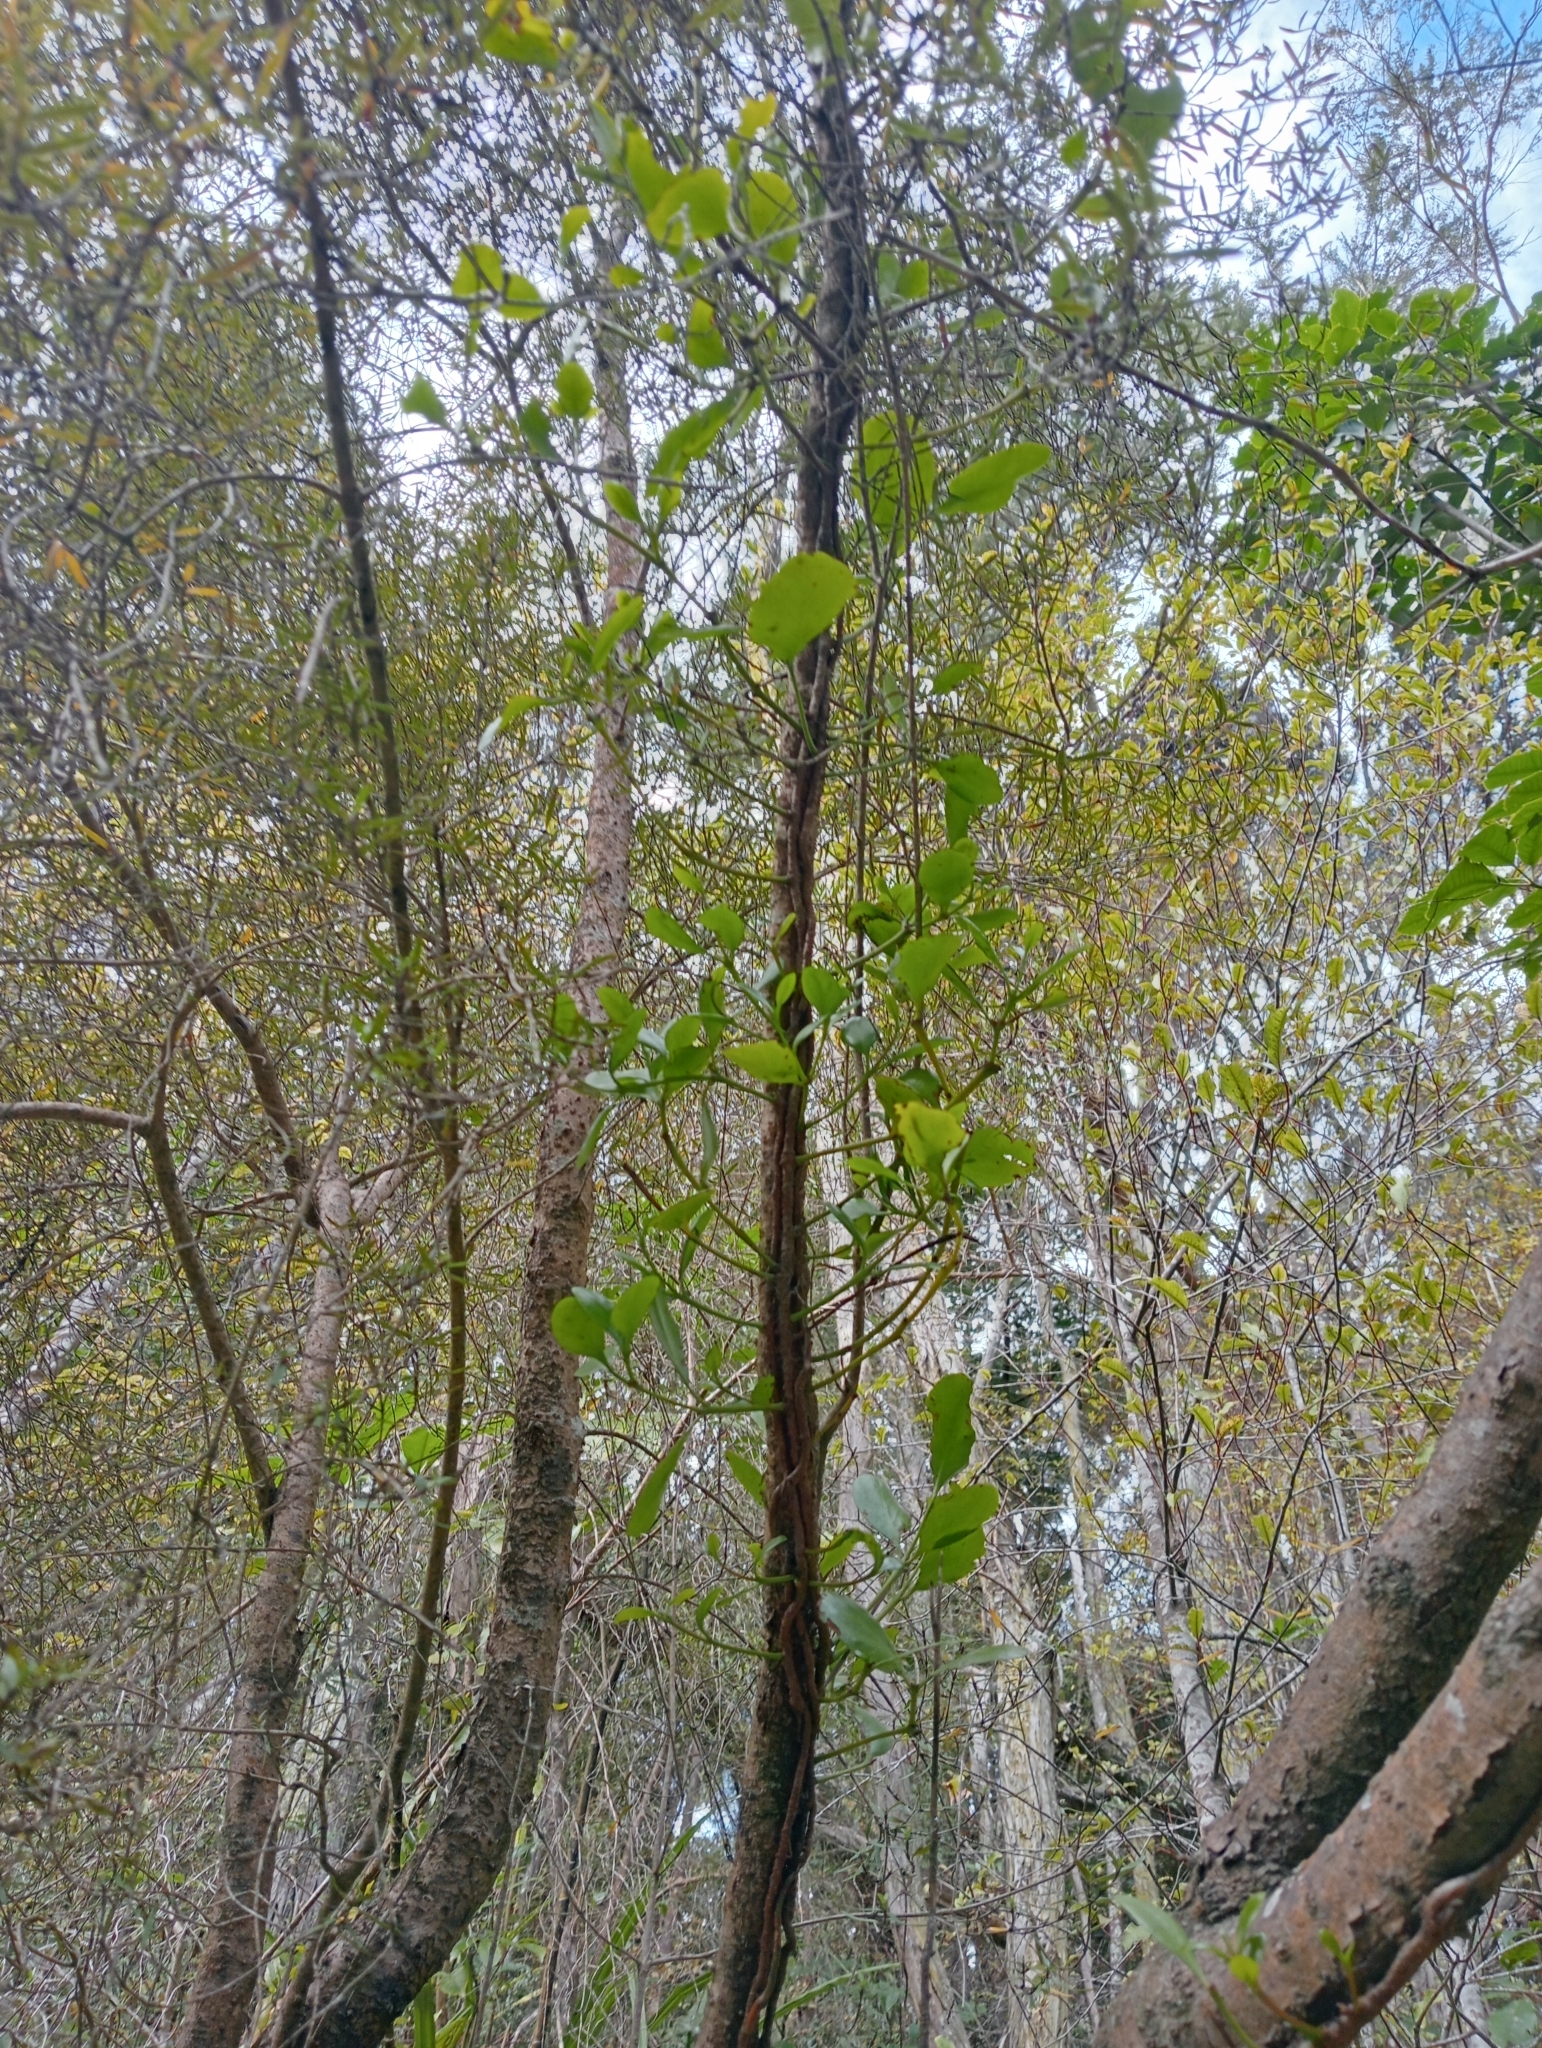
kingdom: Plantae
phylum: Tracheophyta
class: Magnoliopsida
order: Santalales
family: Loranthaceae
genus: Ileostylus
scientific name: Ileostylus micranthus
